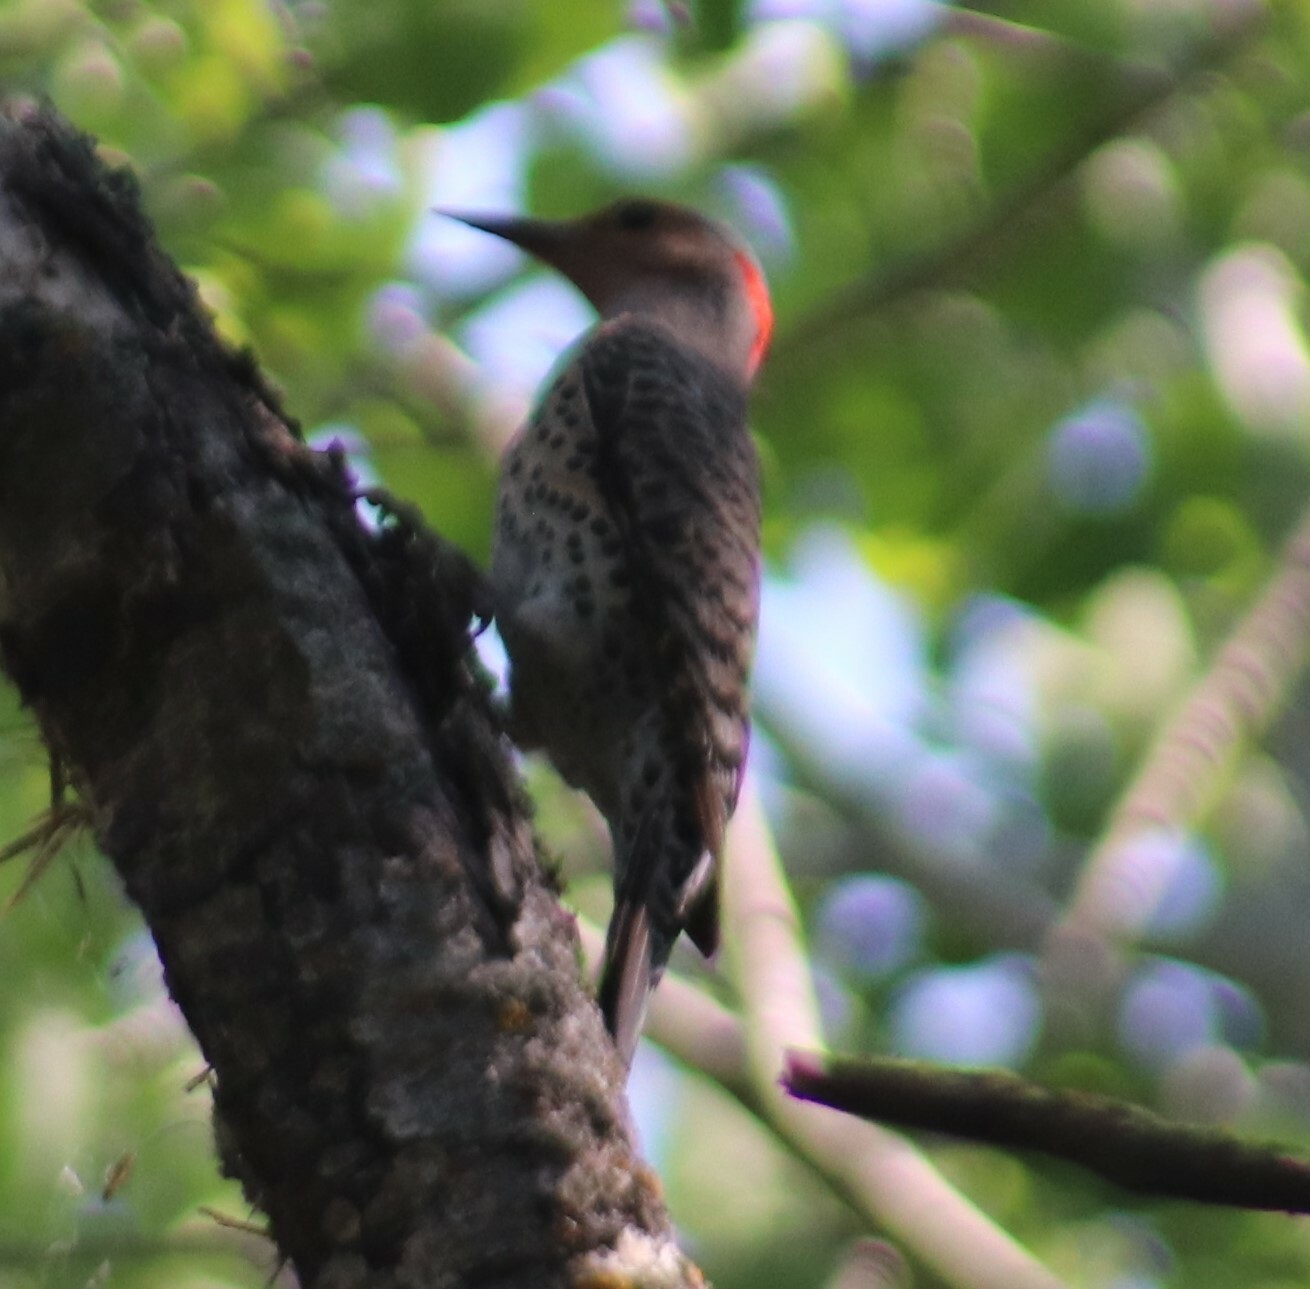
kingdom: Animalia
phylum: Chordata
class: Aves
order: Piciformes
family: Picidae
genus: Colaptes
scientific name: Colaptes auratus
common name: Northern flicker
